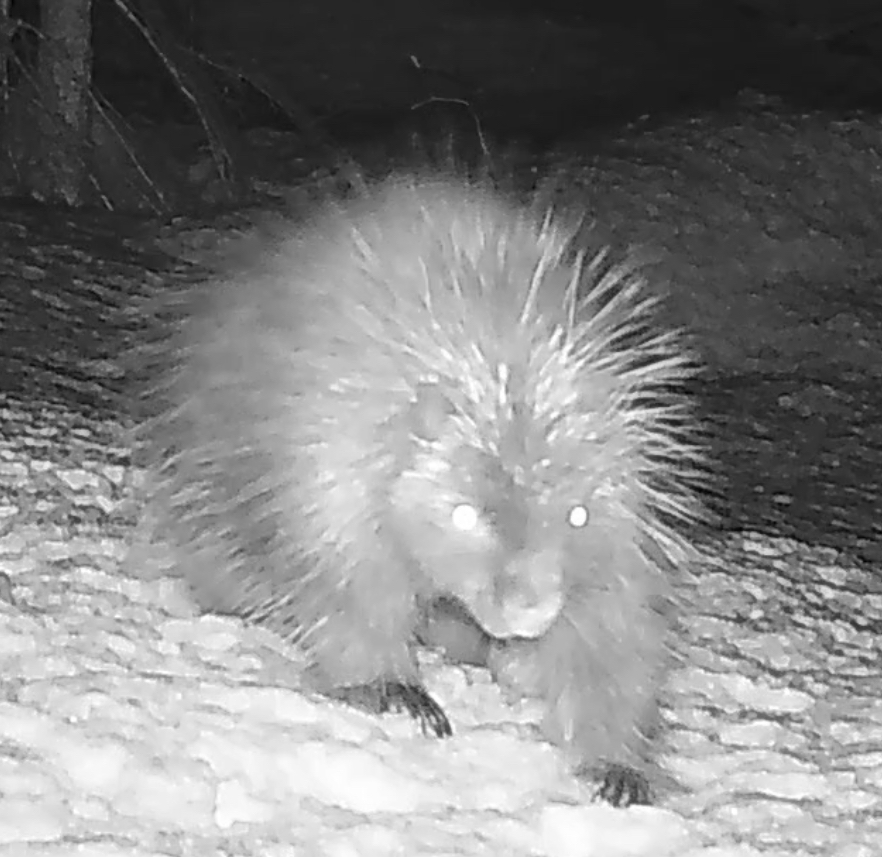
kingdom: Animalia
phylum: Chordata
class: Mammalia
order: Rodentia
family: Erethizontidae
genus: Erethizon
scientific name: Erethizon dorsatus
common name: North american porcupine
